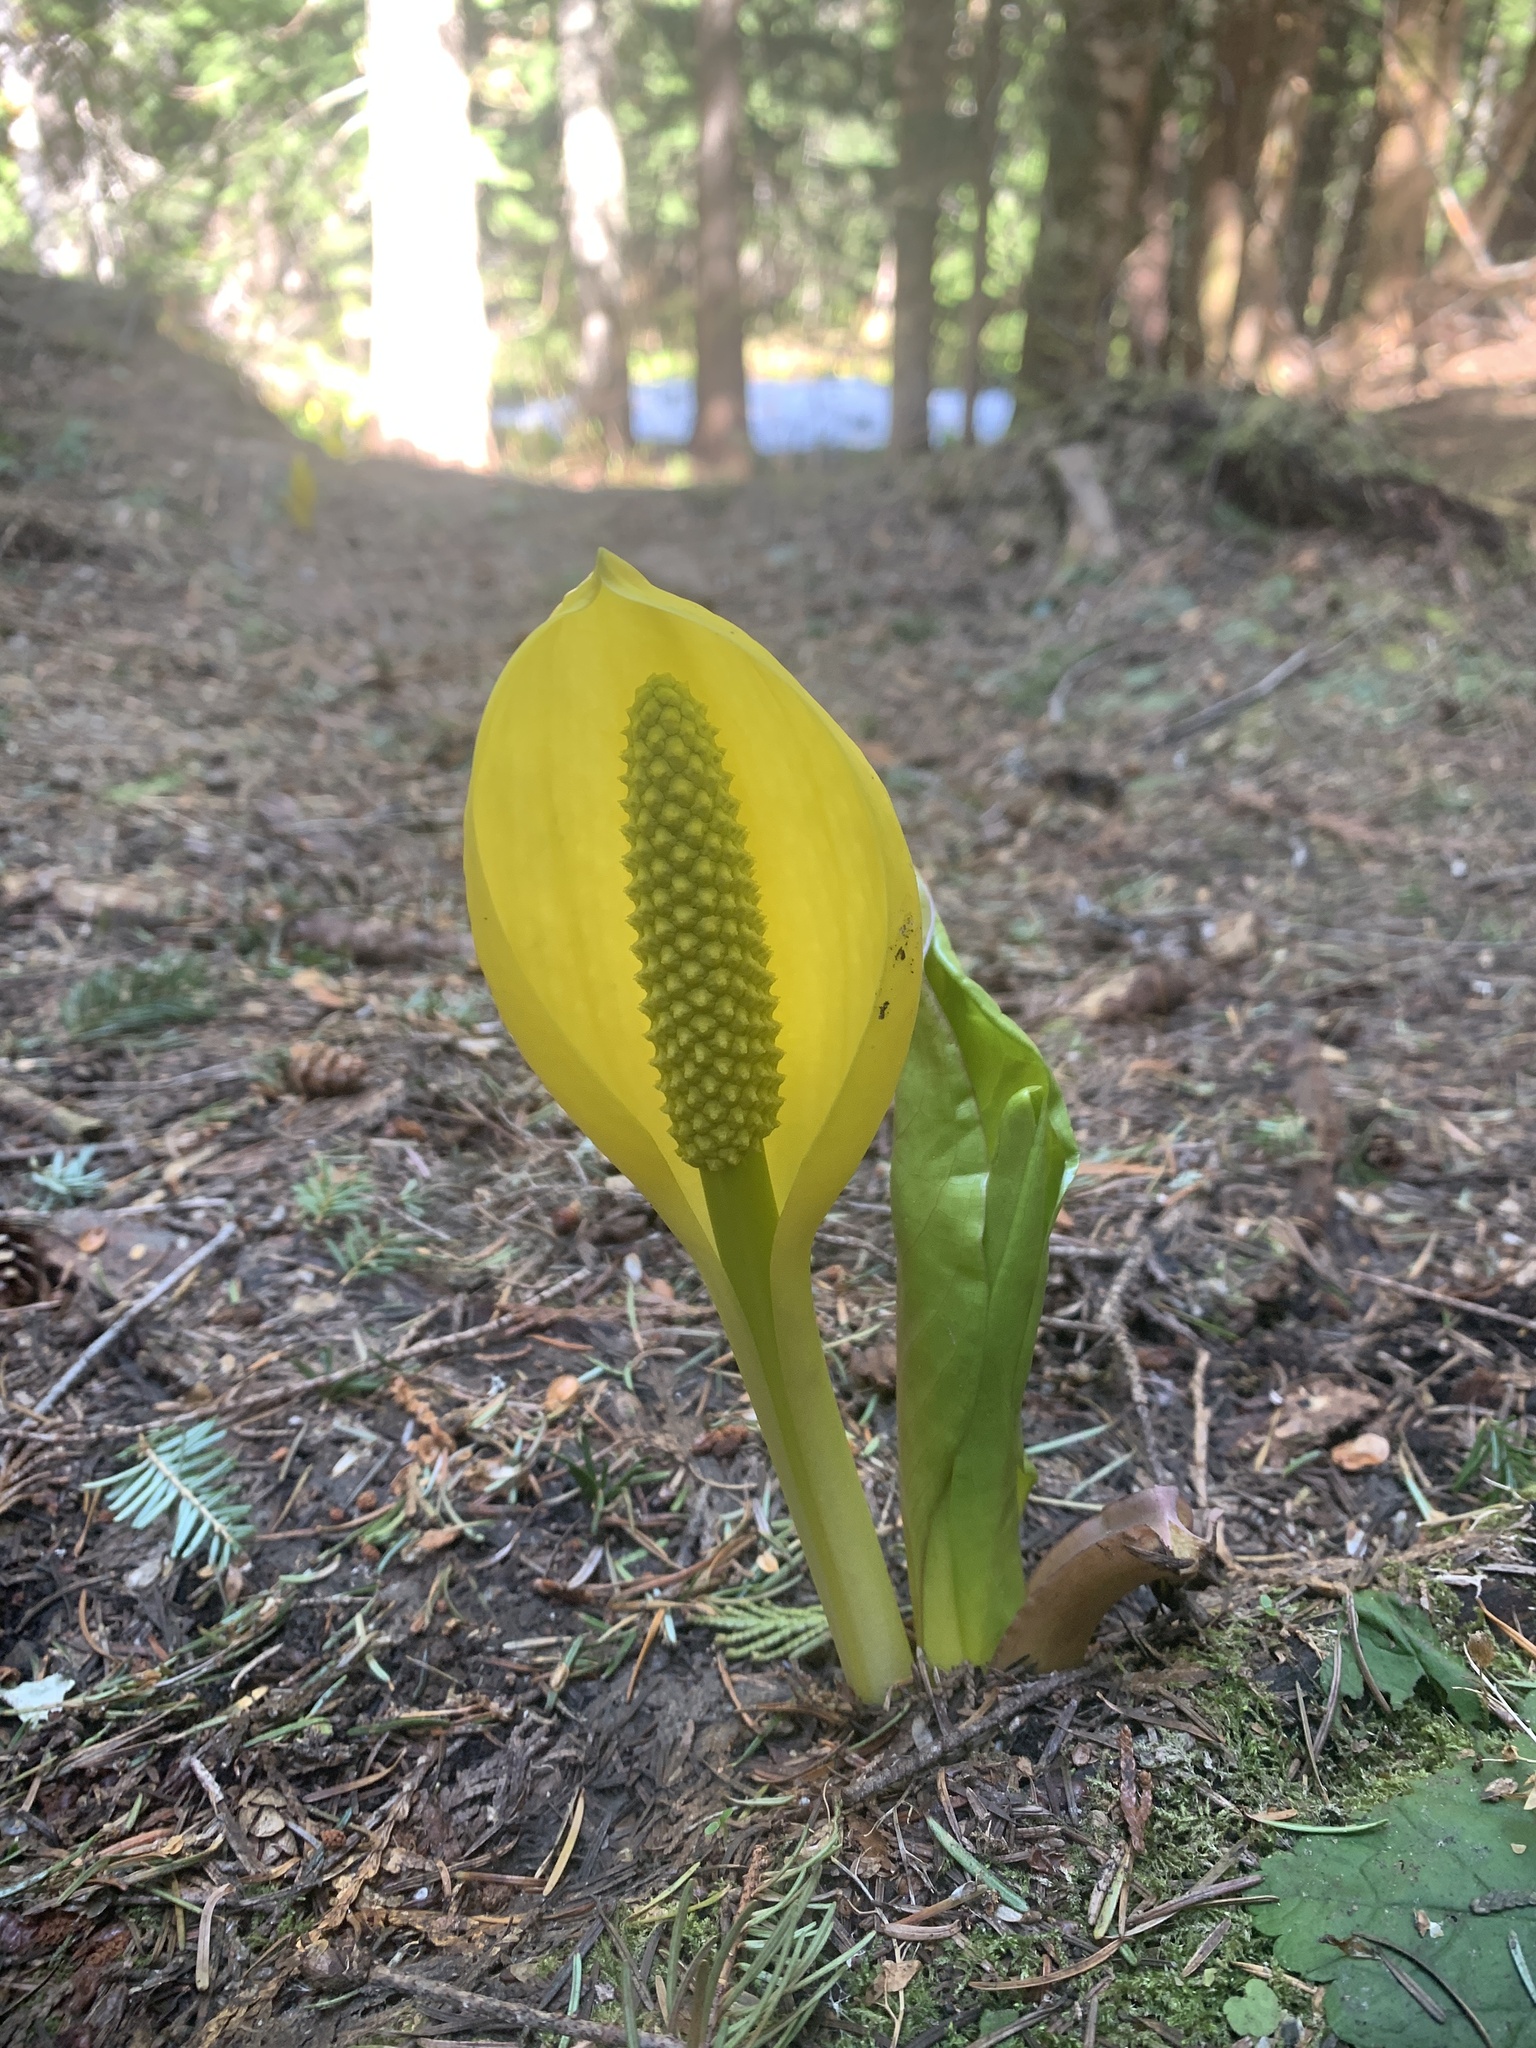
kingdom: Plantae
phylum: Tracheophyta
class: Liliopsida
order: Alismatales
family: Araceae
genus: Lysichiton
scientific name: Lysichiton americanus
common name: American skunk cabbage
